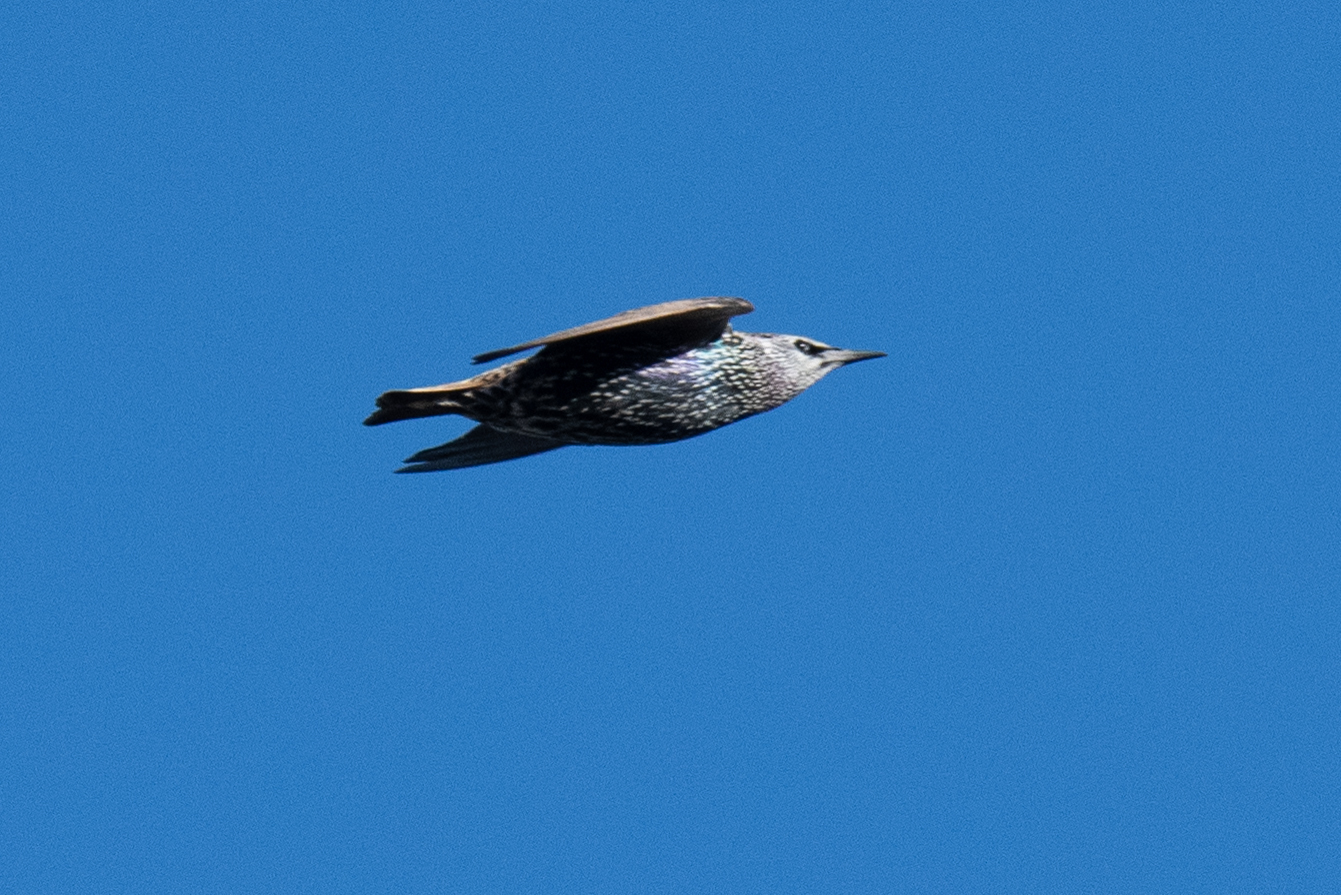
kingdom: Animalia
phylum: Chordata
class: Aves
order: Passeriformes
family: Sturnidae
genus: Sturnus
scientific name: Sturnus vulgaris
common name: Common starling
